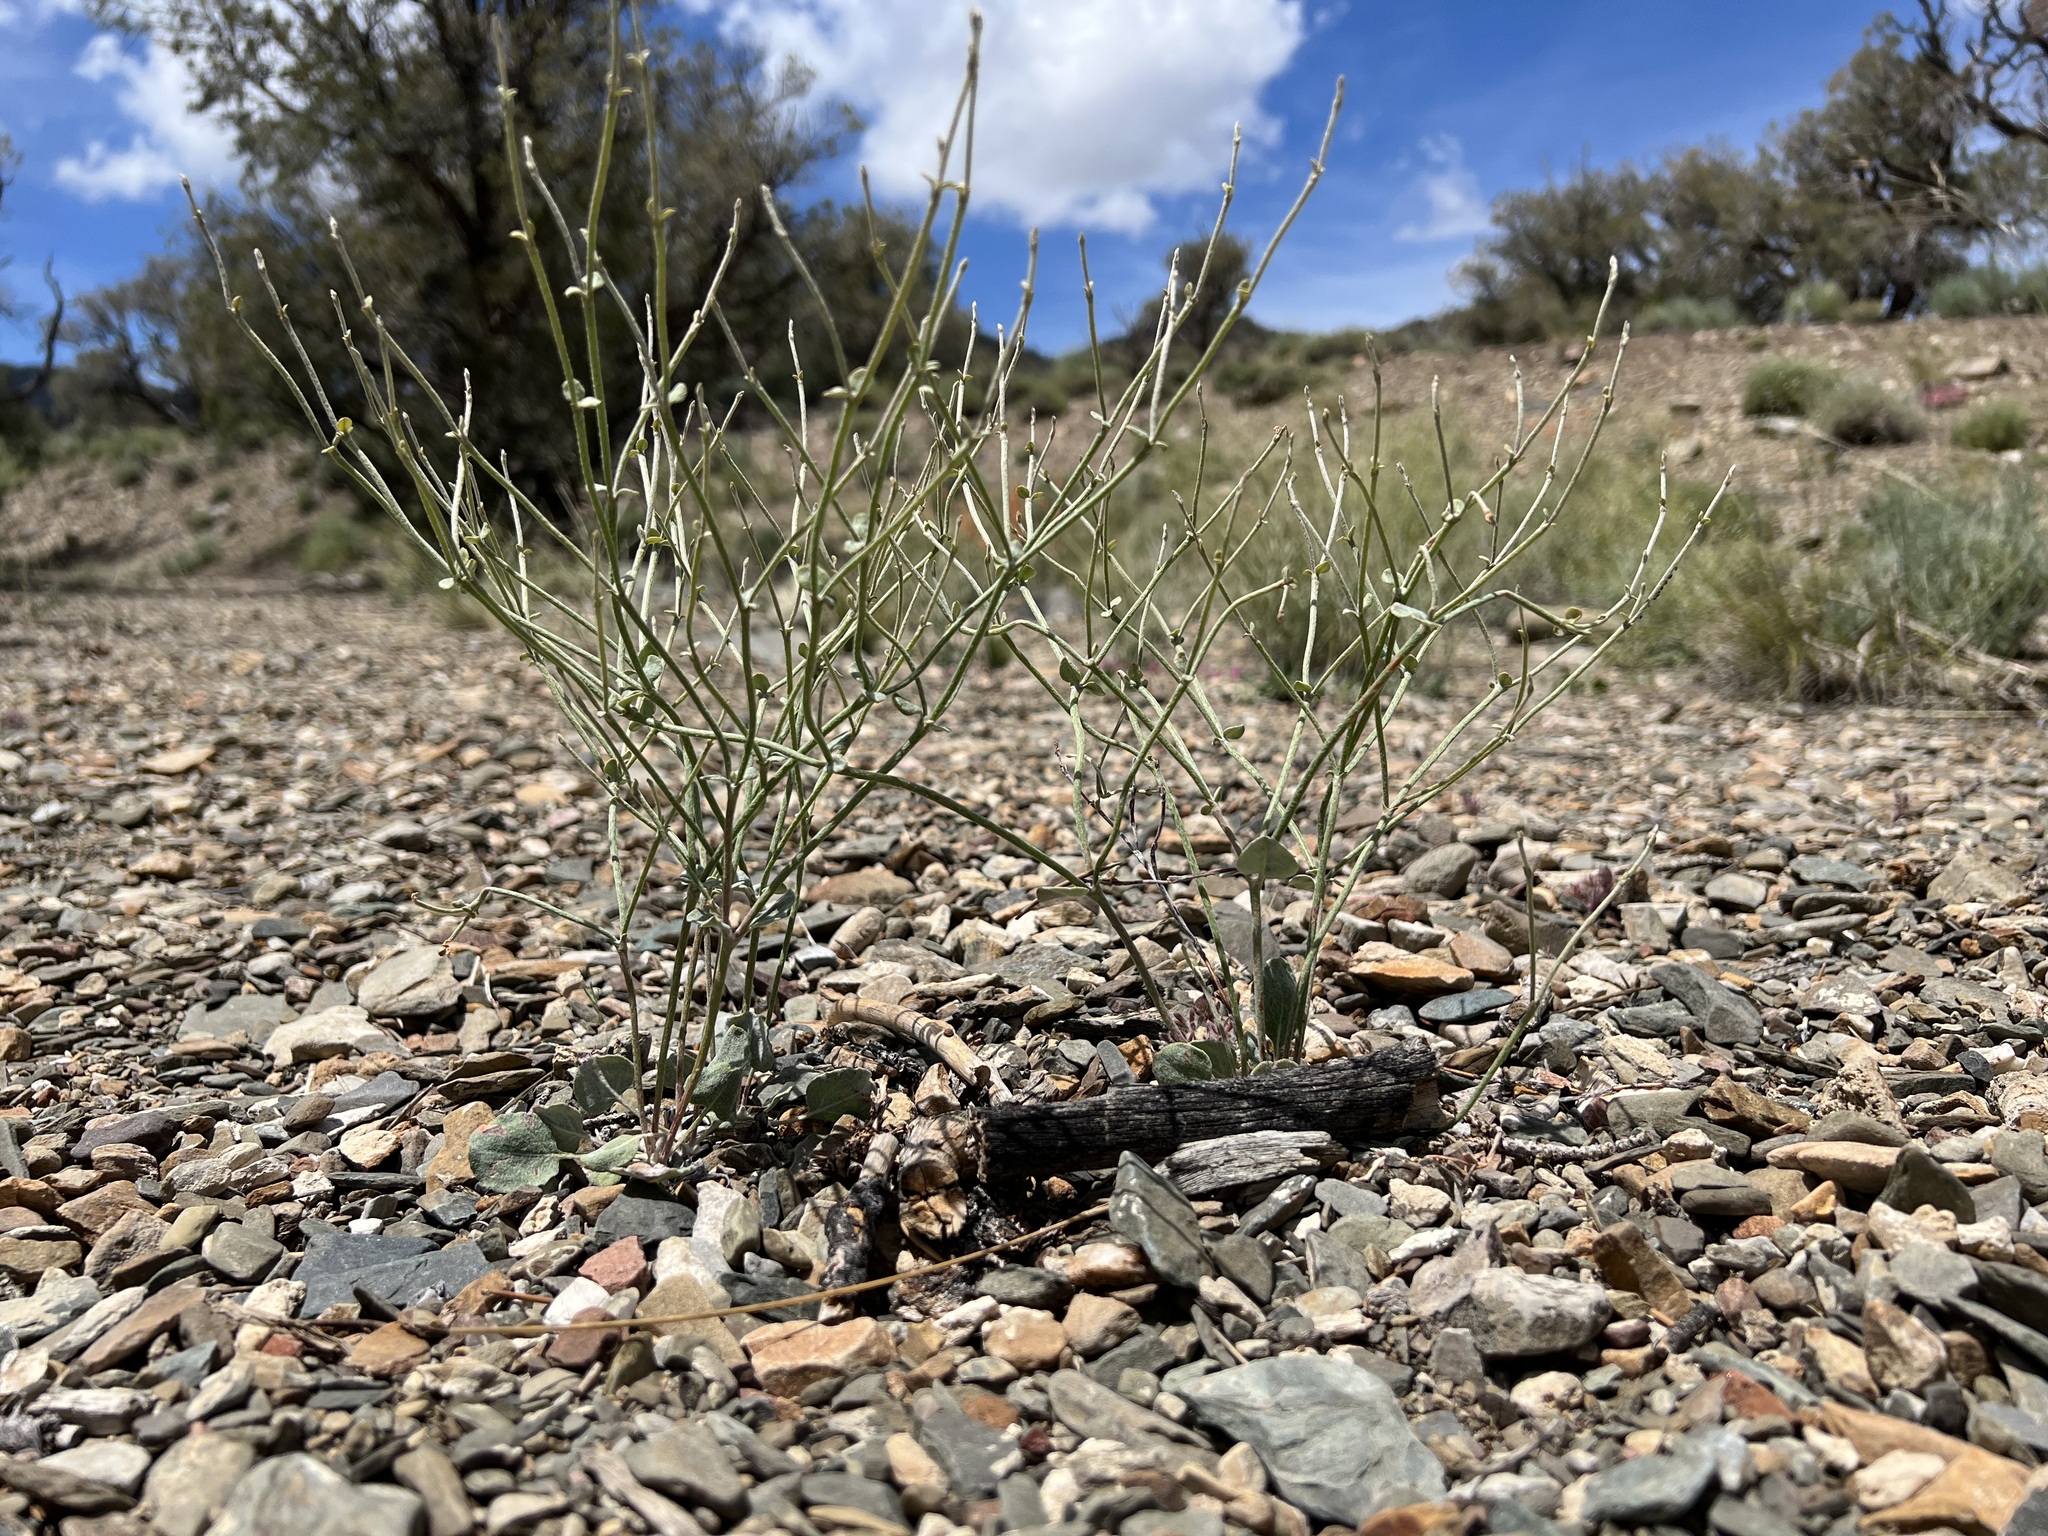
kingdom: Plantae
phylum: Tracheophyta
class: Magnoliopsida
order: Caryophyllales
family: Polygonaceae
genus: Eriogonum
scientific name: Eriogonum panamintense
